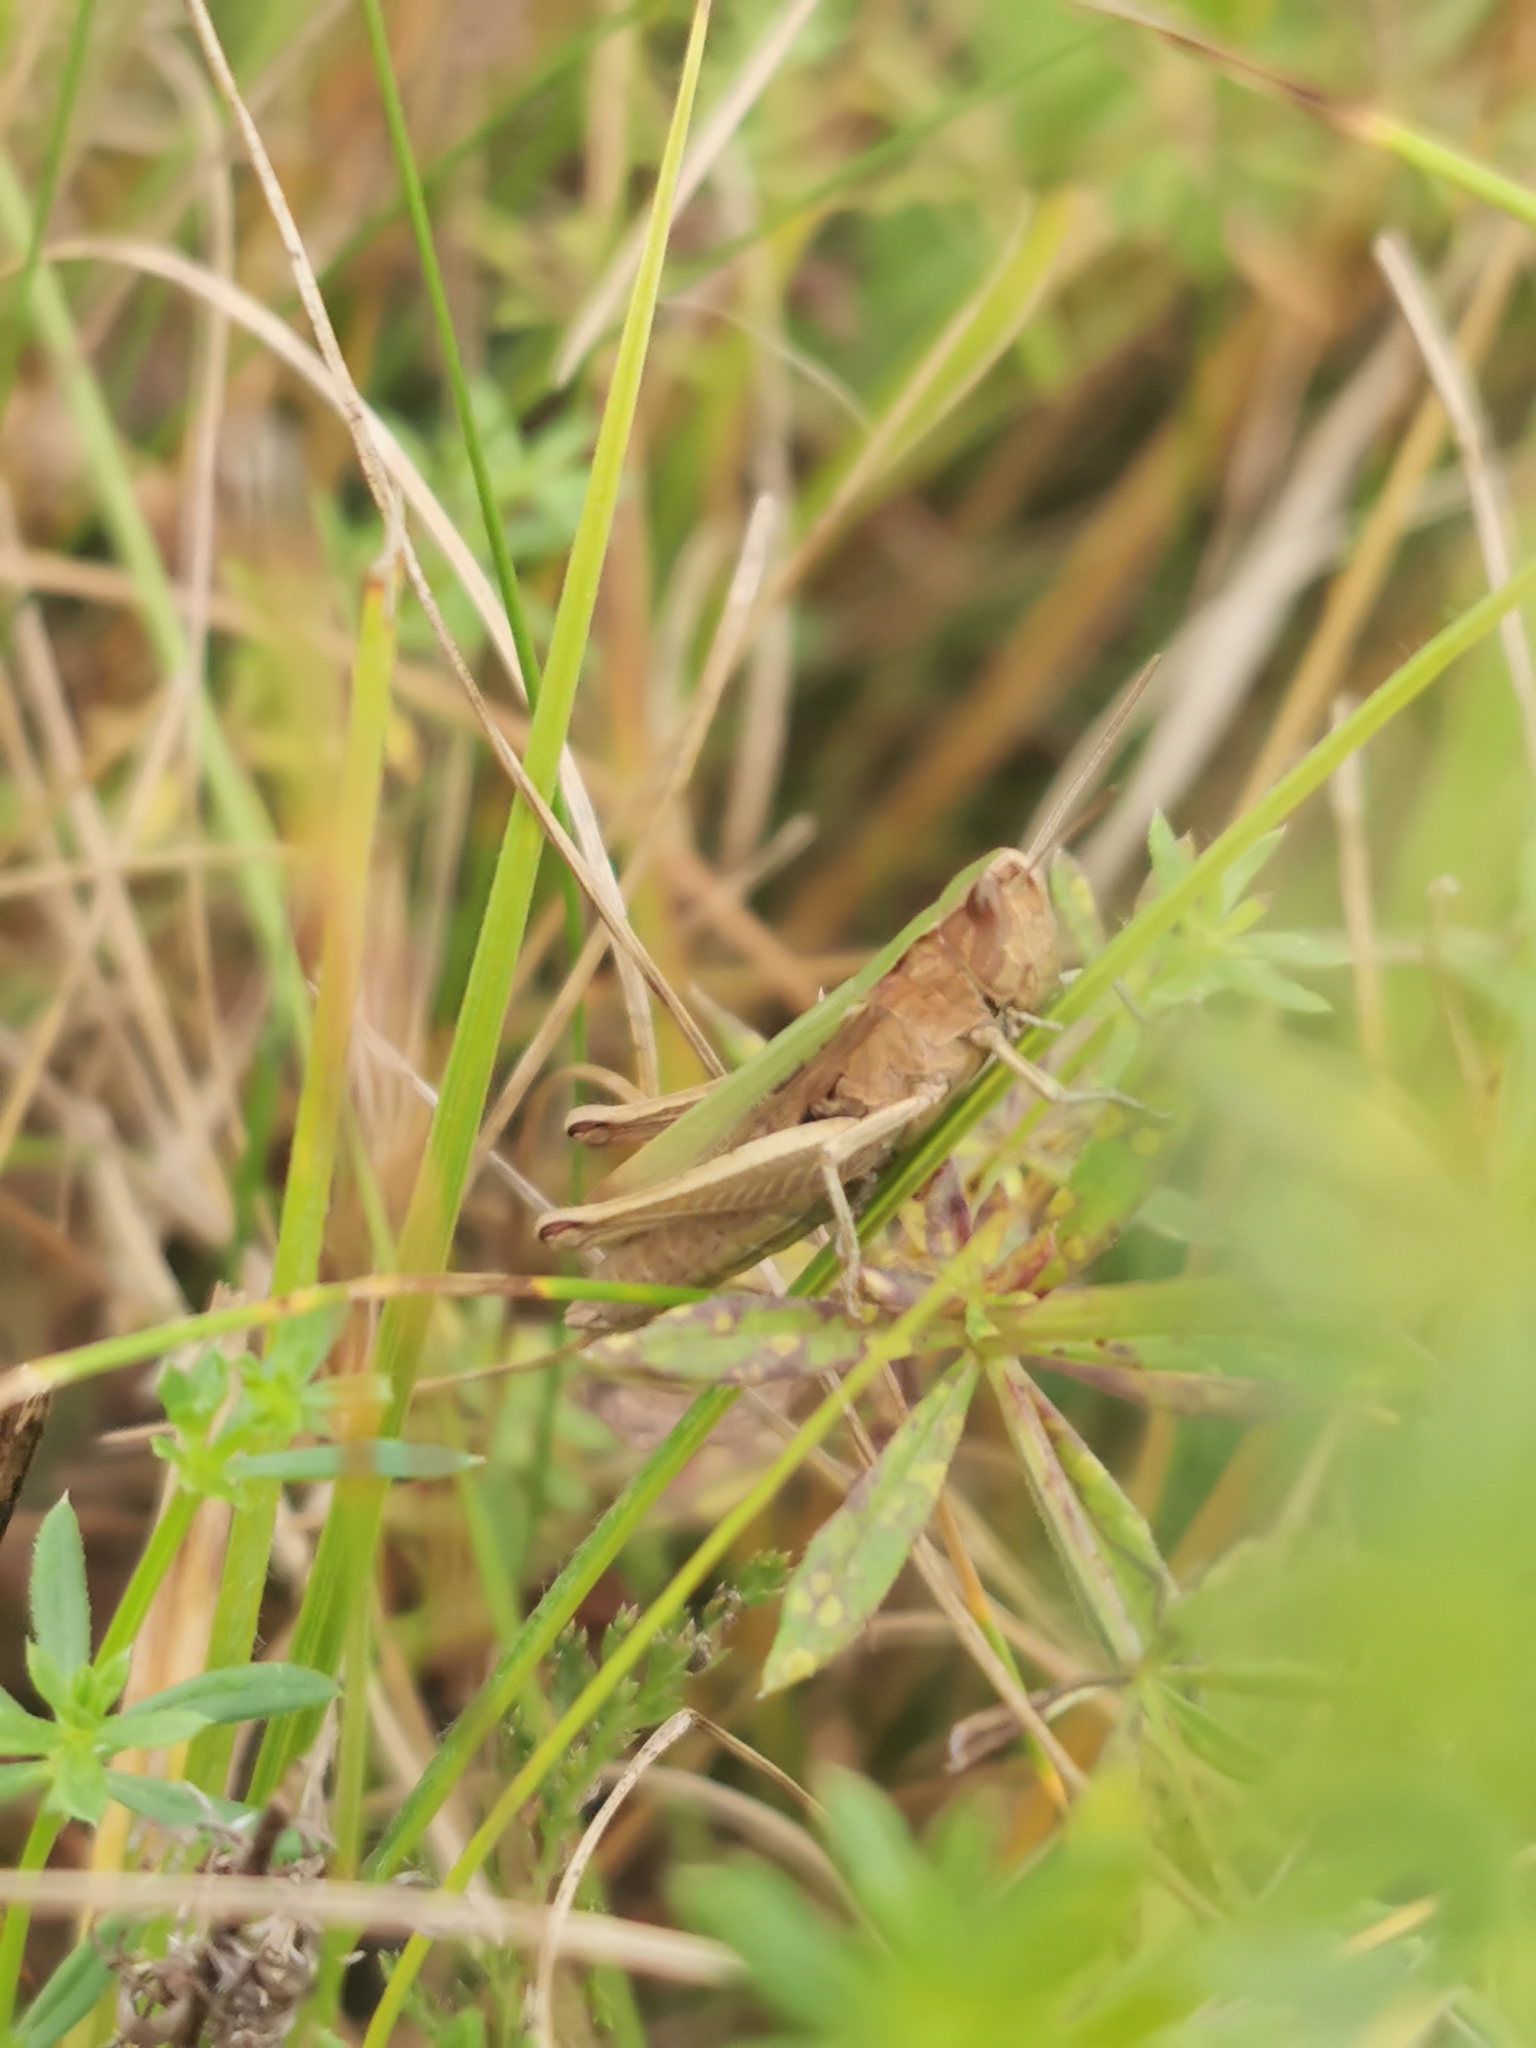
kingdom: Animalia
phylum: Arthropoda
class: Insecta
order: Orthoptera
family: Acrididae
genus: Chorthippus
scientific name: Chorthippus dorsatus
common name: Steppe grasshopper
